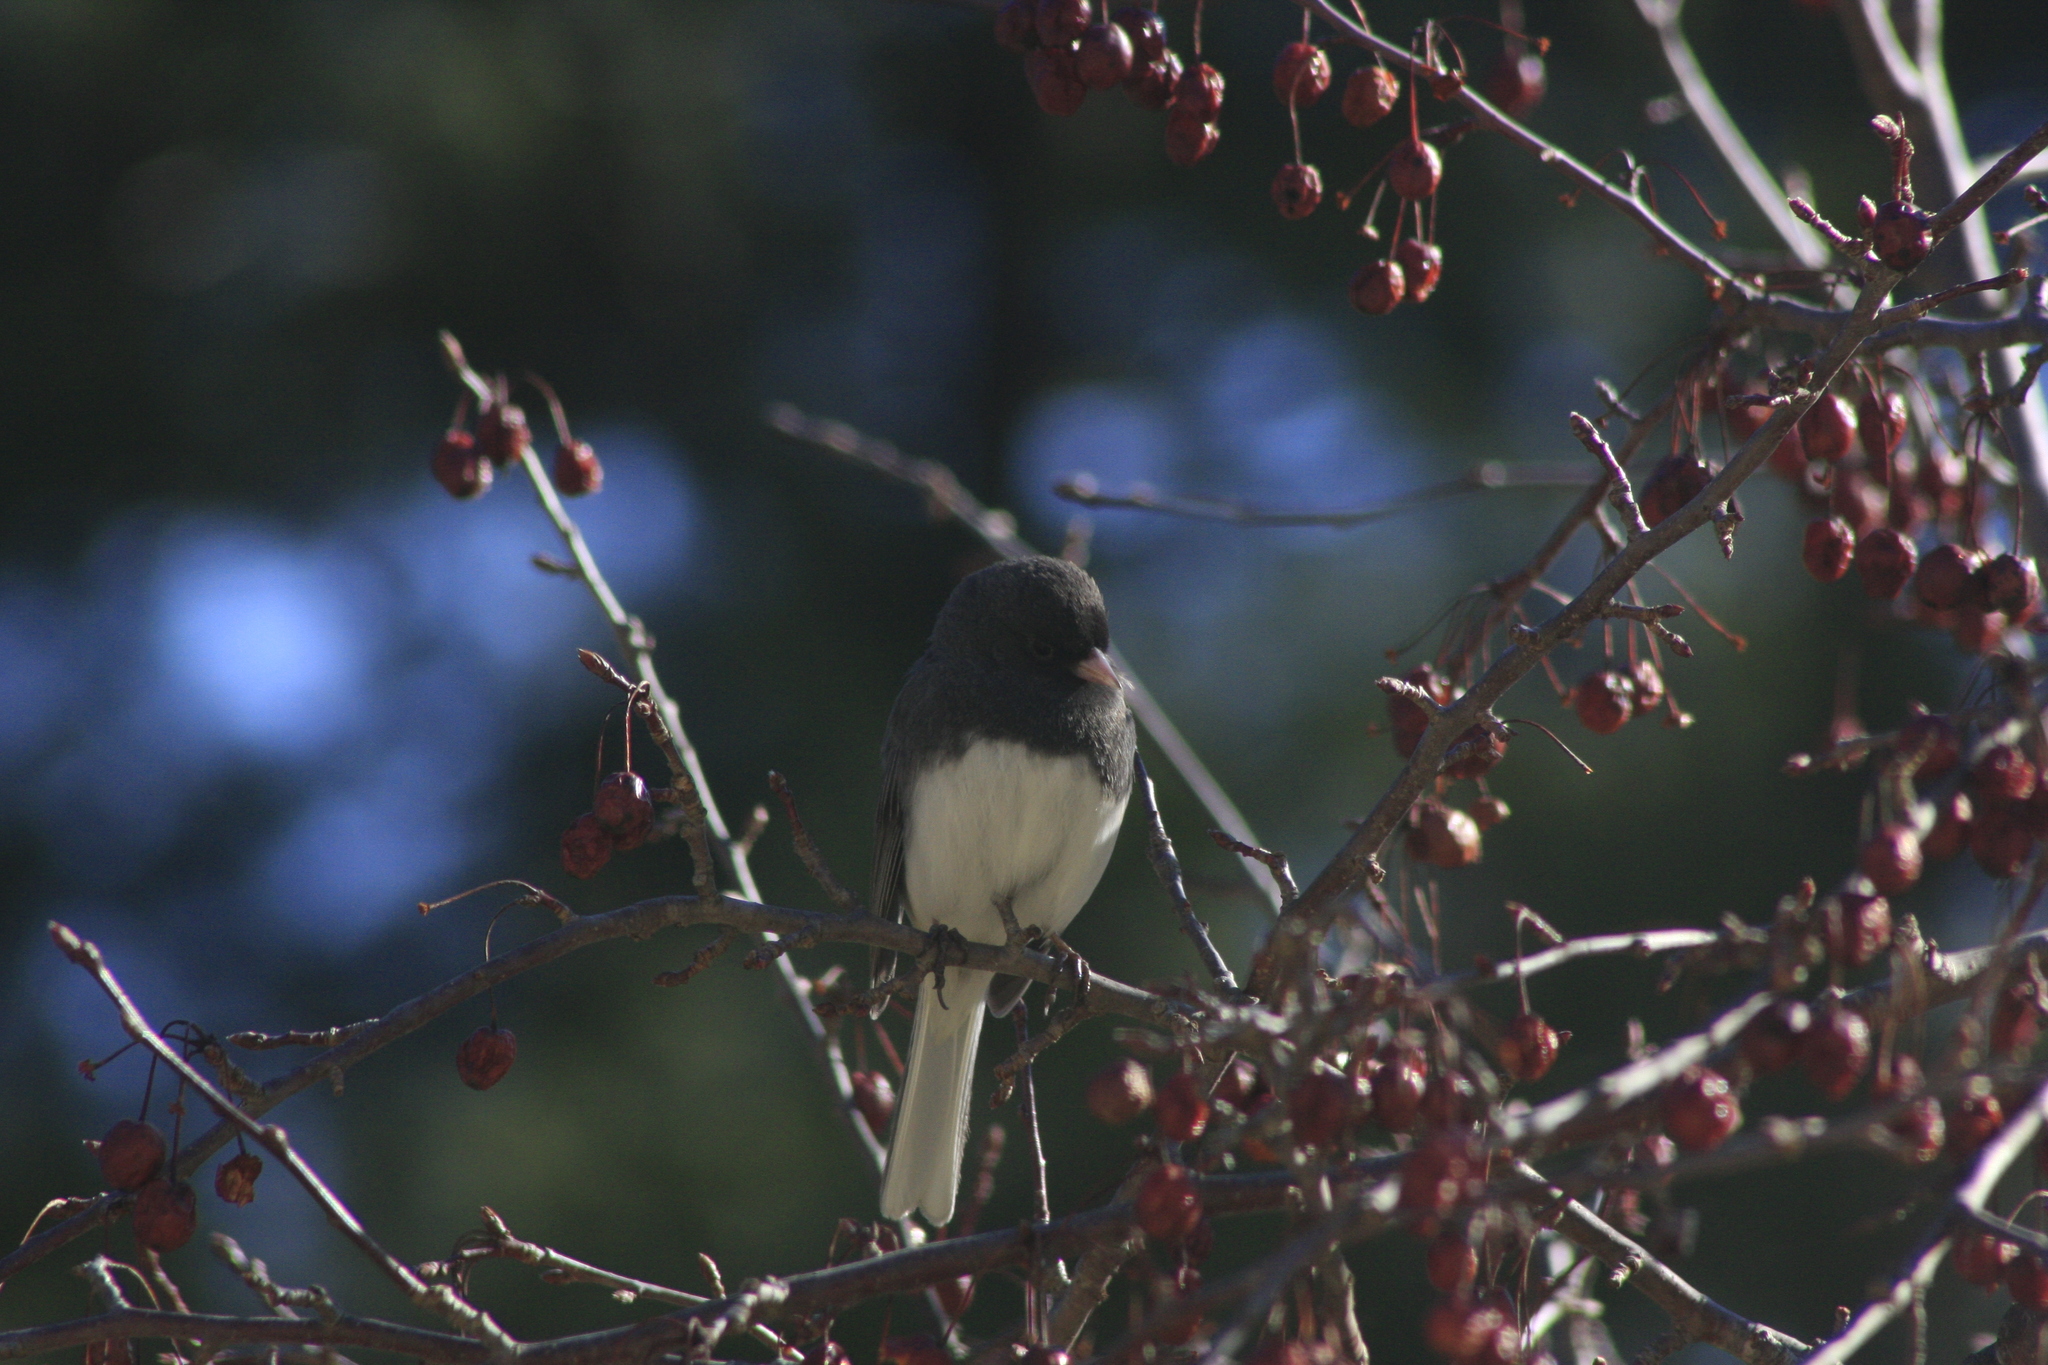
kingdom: Animalia
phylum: Chordata
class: Aves
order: Passeriformes
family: Passerellidae
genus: Junco
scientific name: Junco hyemalis
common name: Dark-eyed junco
